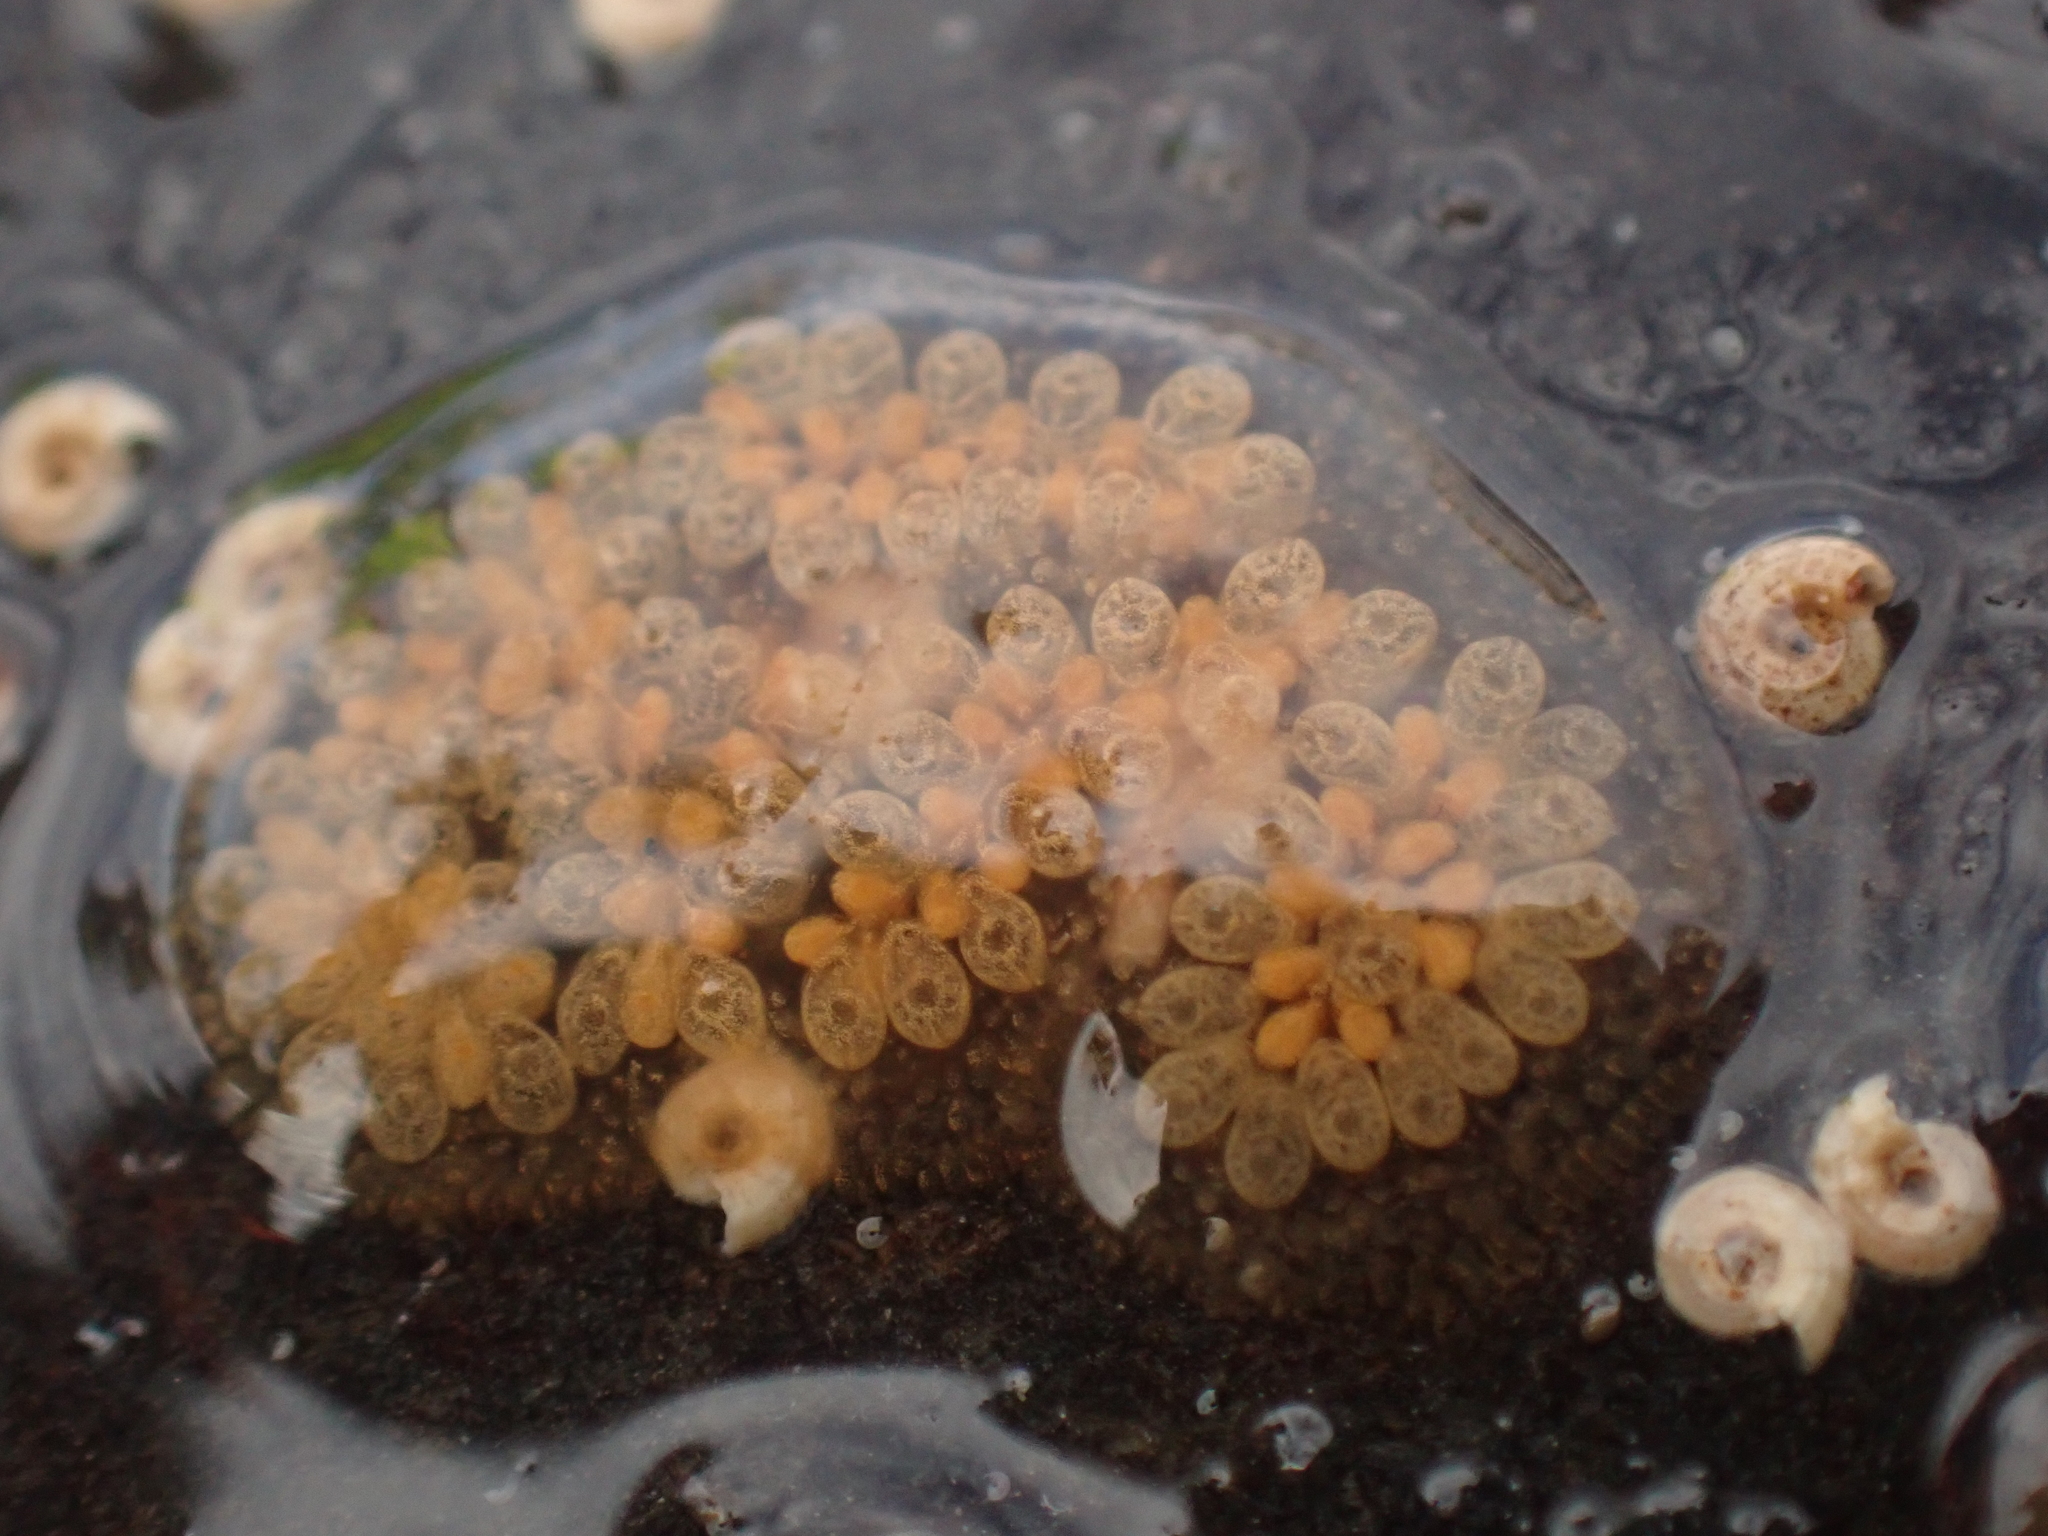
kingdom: Animalia
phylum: Chordata
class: Ascidiacea
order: Stolidobranchia
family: Styelidae
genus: Botryllus
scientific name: Botryllus schlosseri
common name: Golden star tunicate
